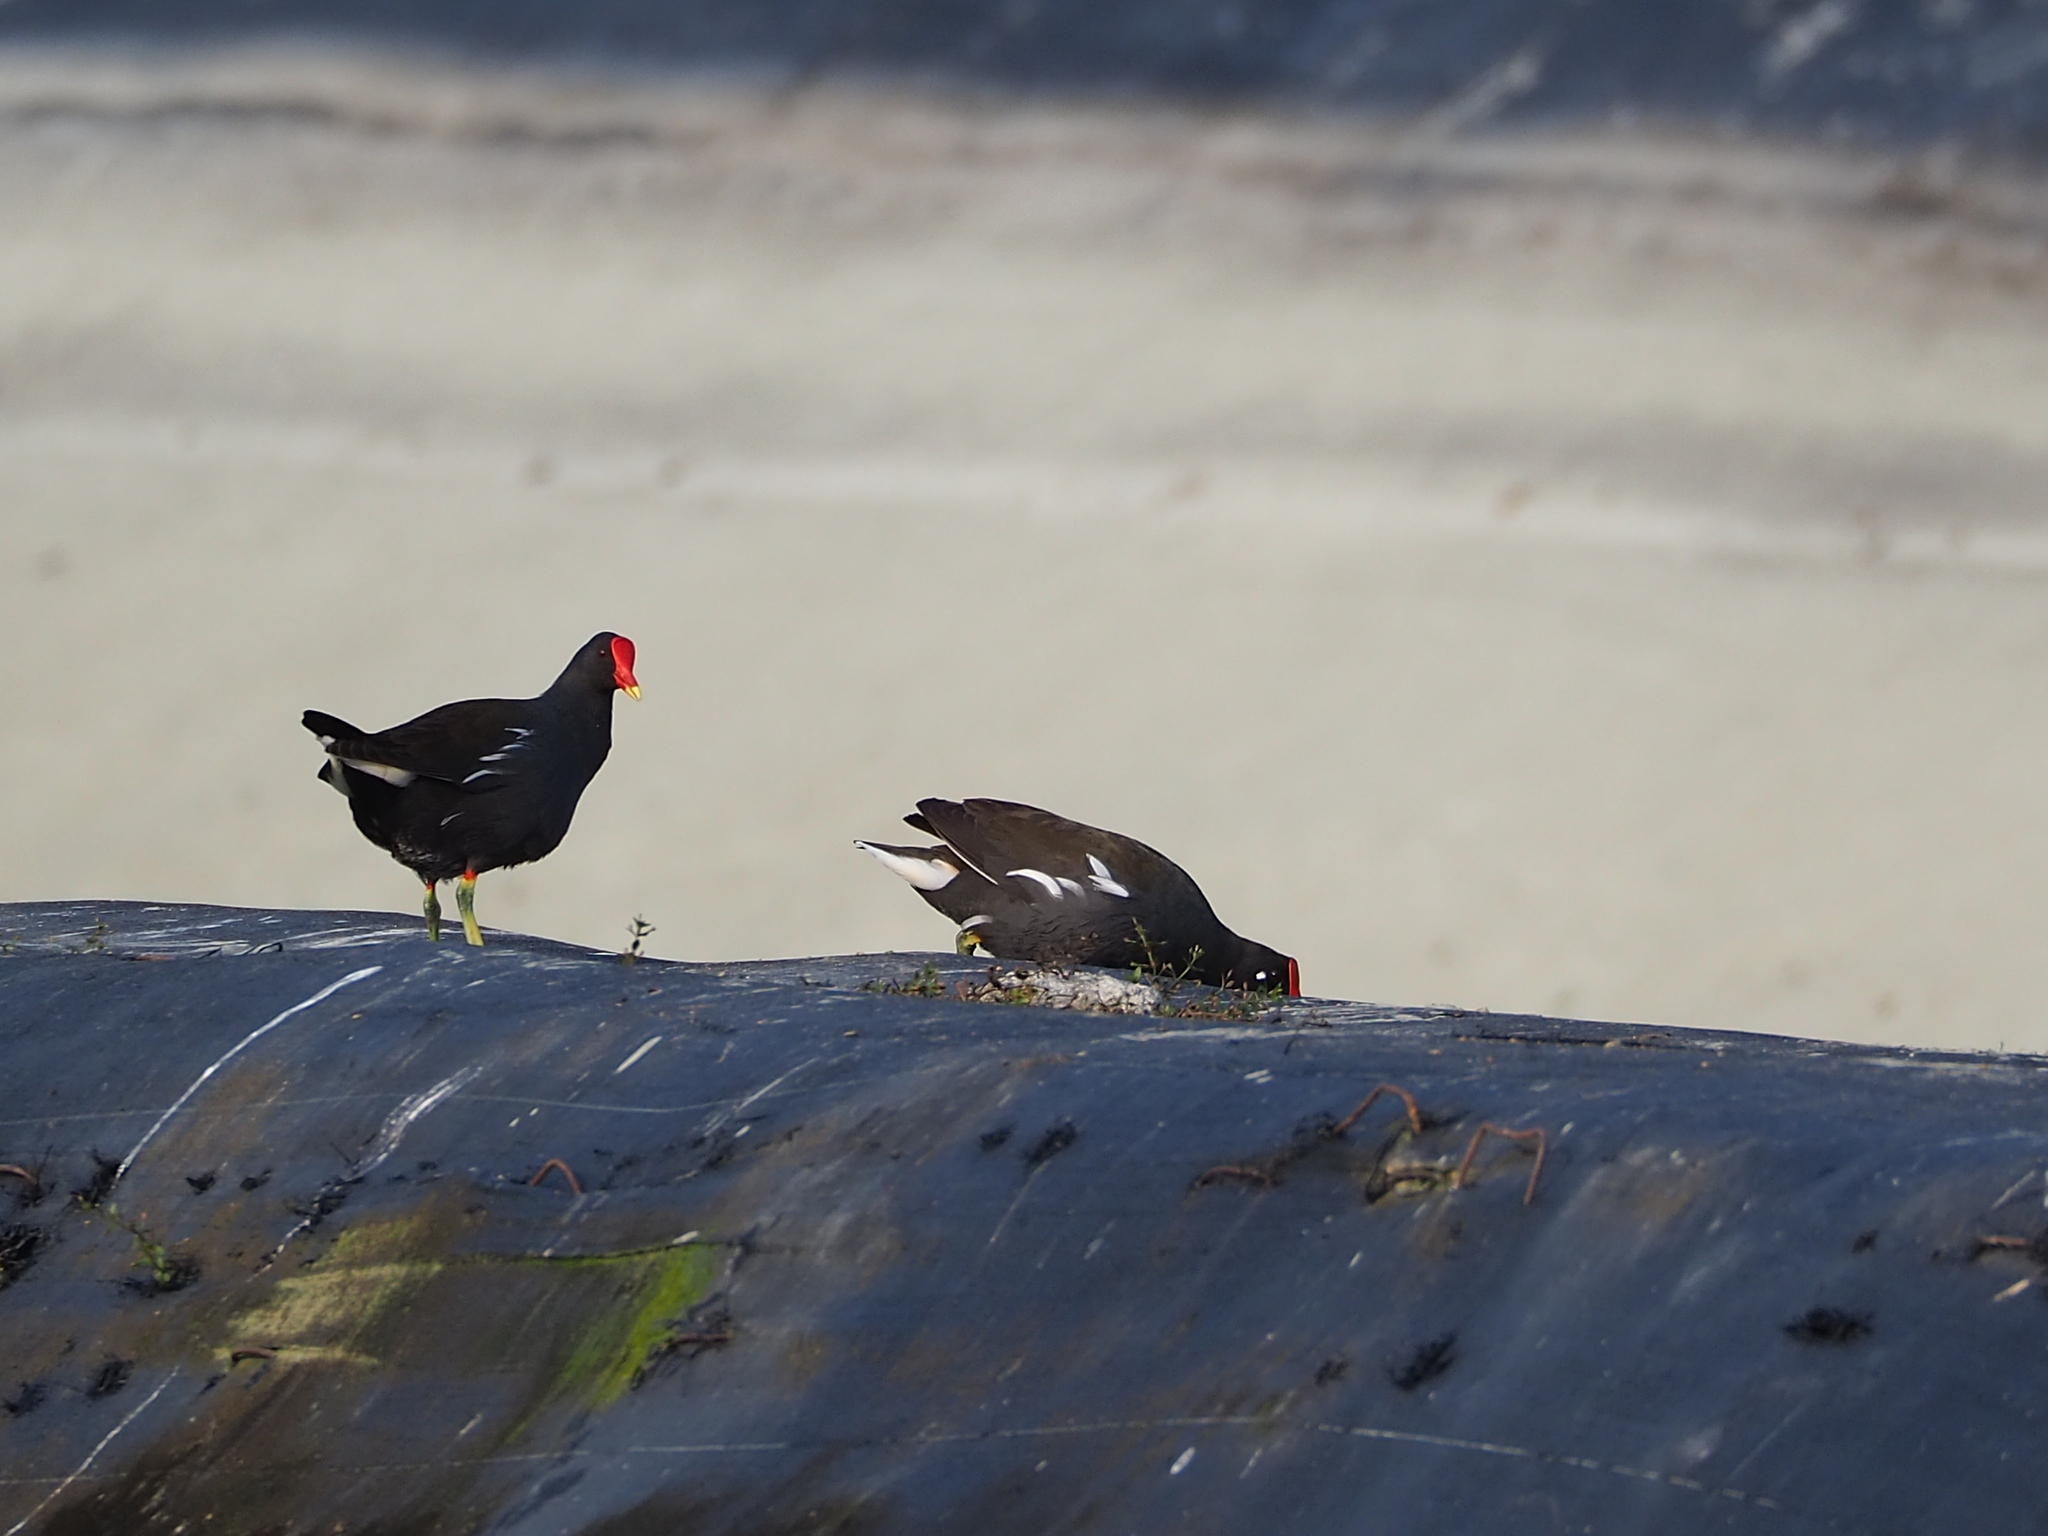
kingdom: Animalia
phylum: Chordata
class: Aves
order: Gruiformes
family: Rallidae
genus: Gallinula
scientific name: Gallinula chloropus
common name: Common moorhen
